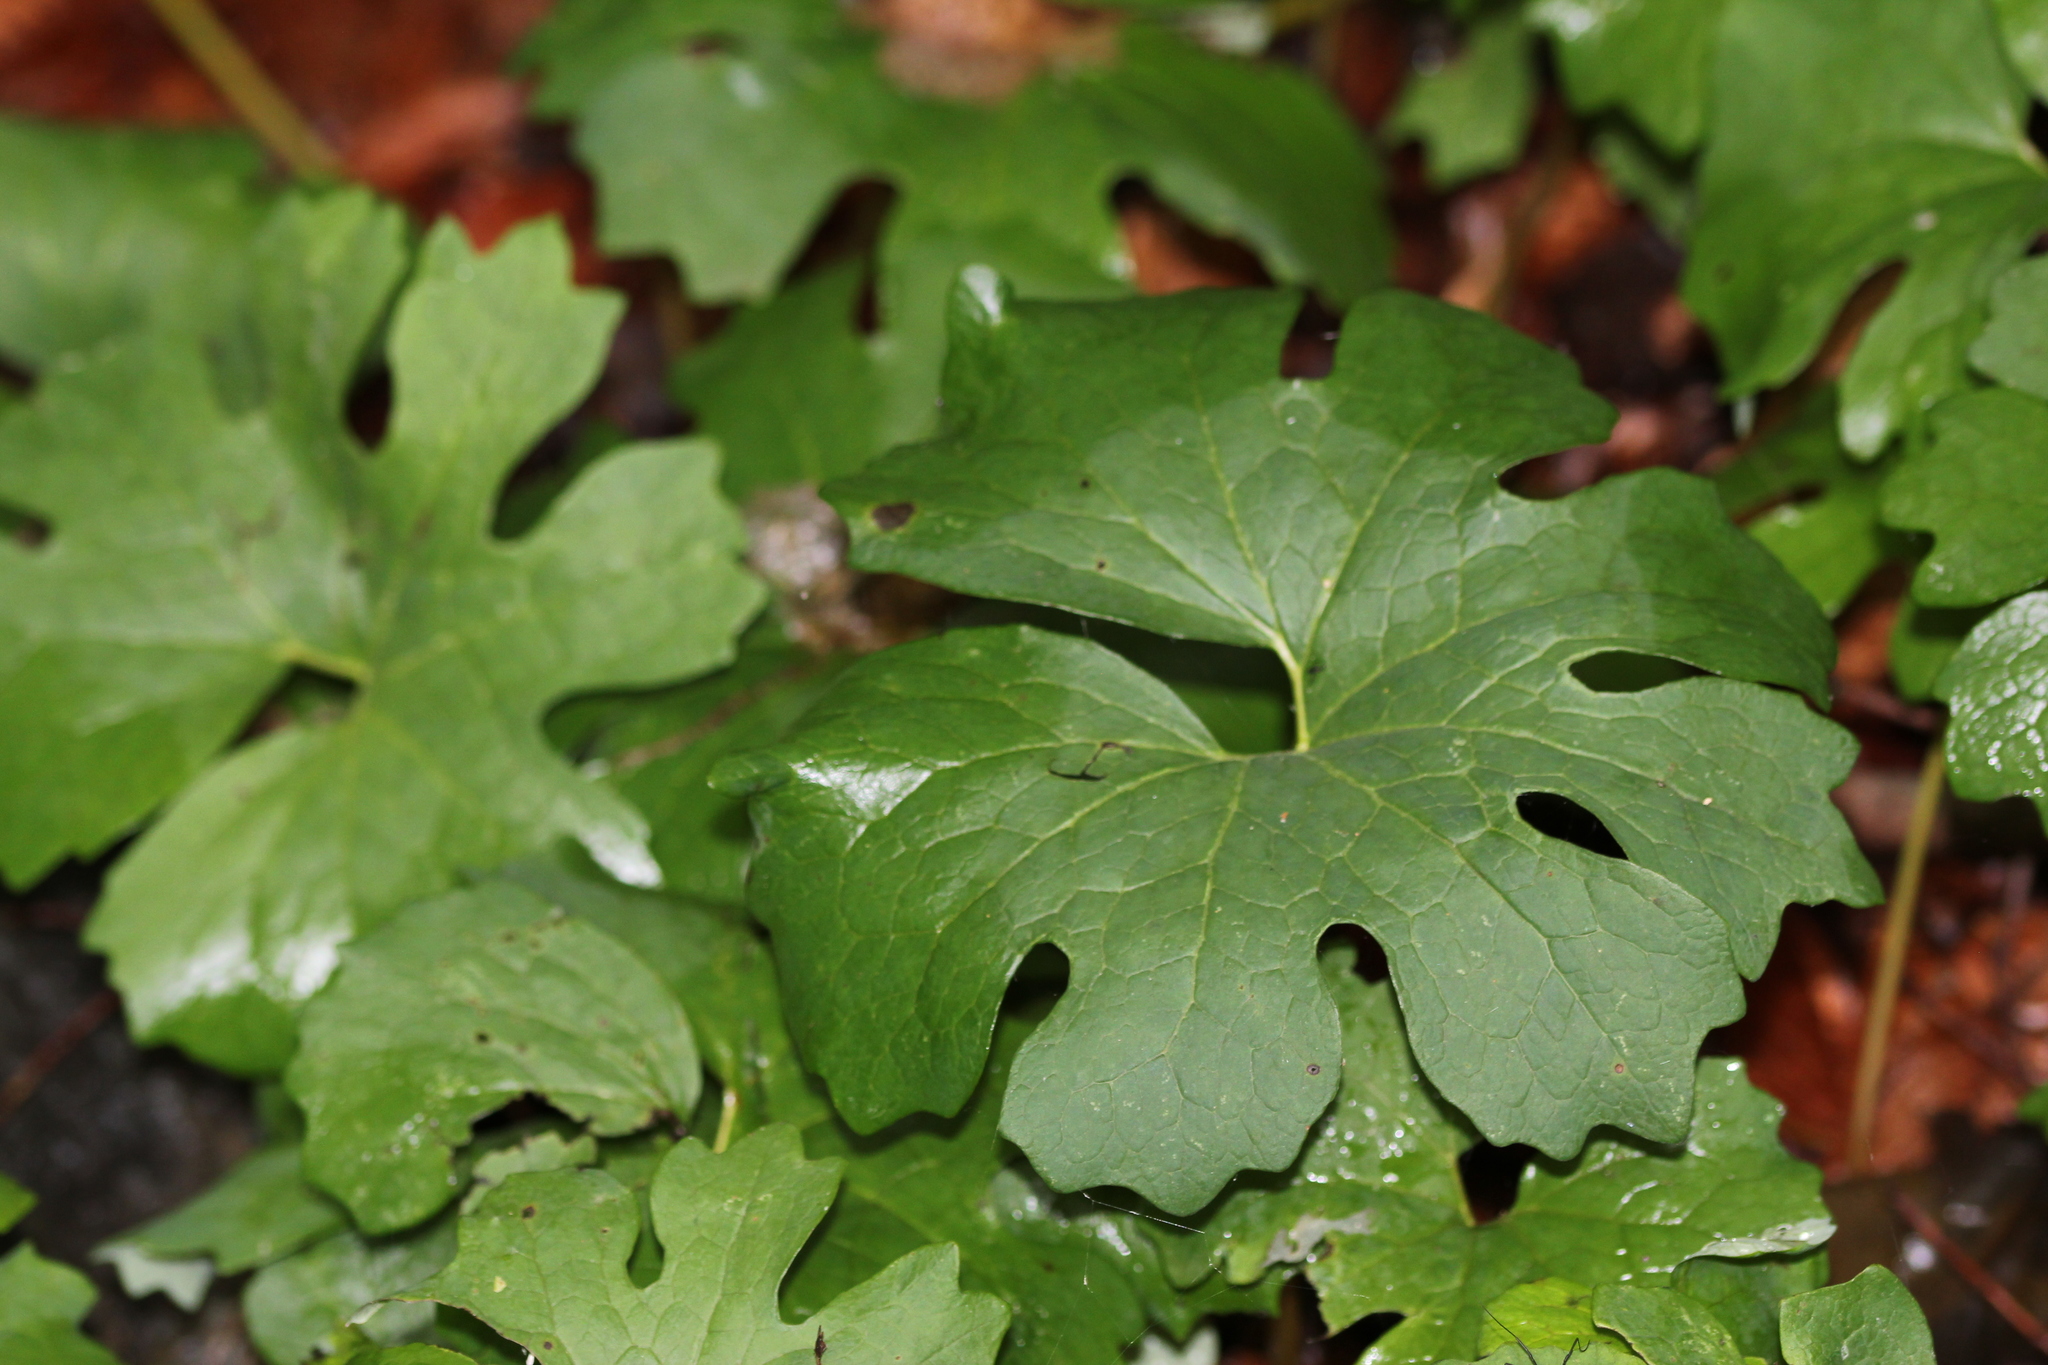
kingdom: Plantae
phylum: Tracheophyta
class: Magnoliopsida
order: Ranunculales
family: Papaveraceae
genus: Sanguinaria
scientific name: Sanguinaria canadensis
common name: Bloodroot
